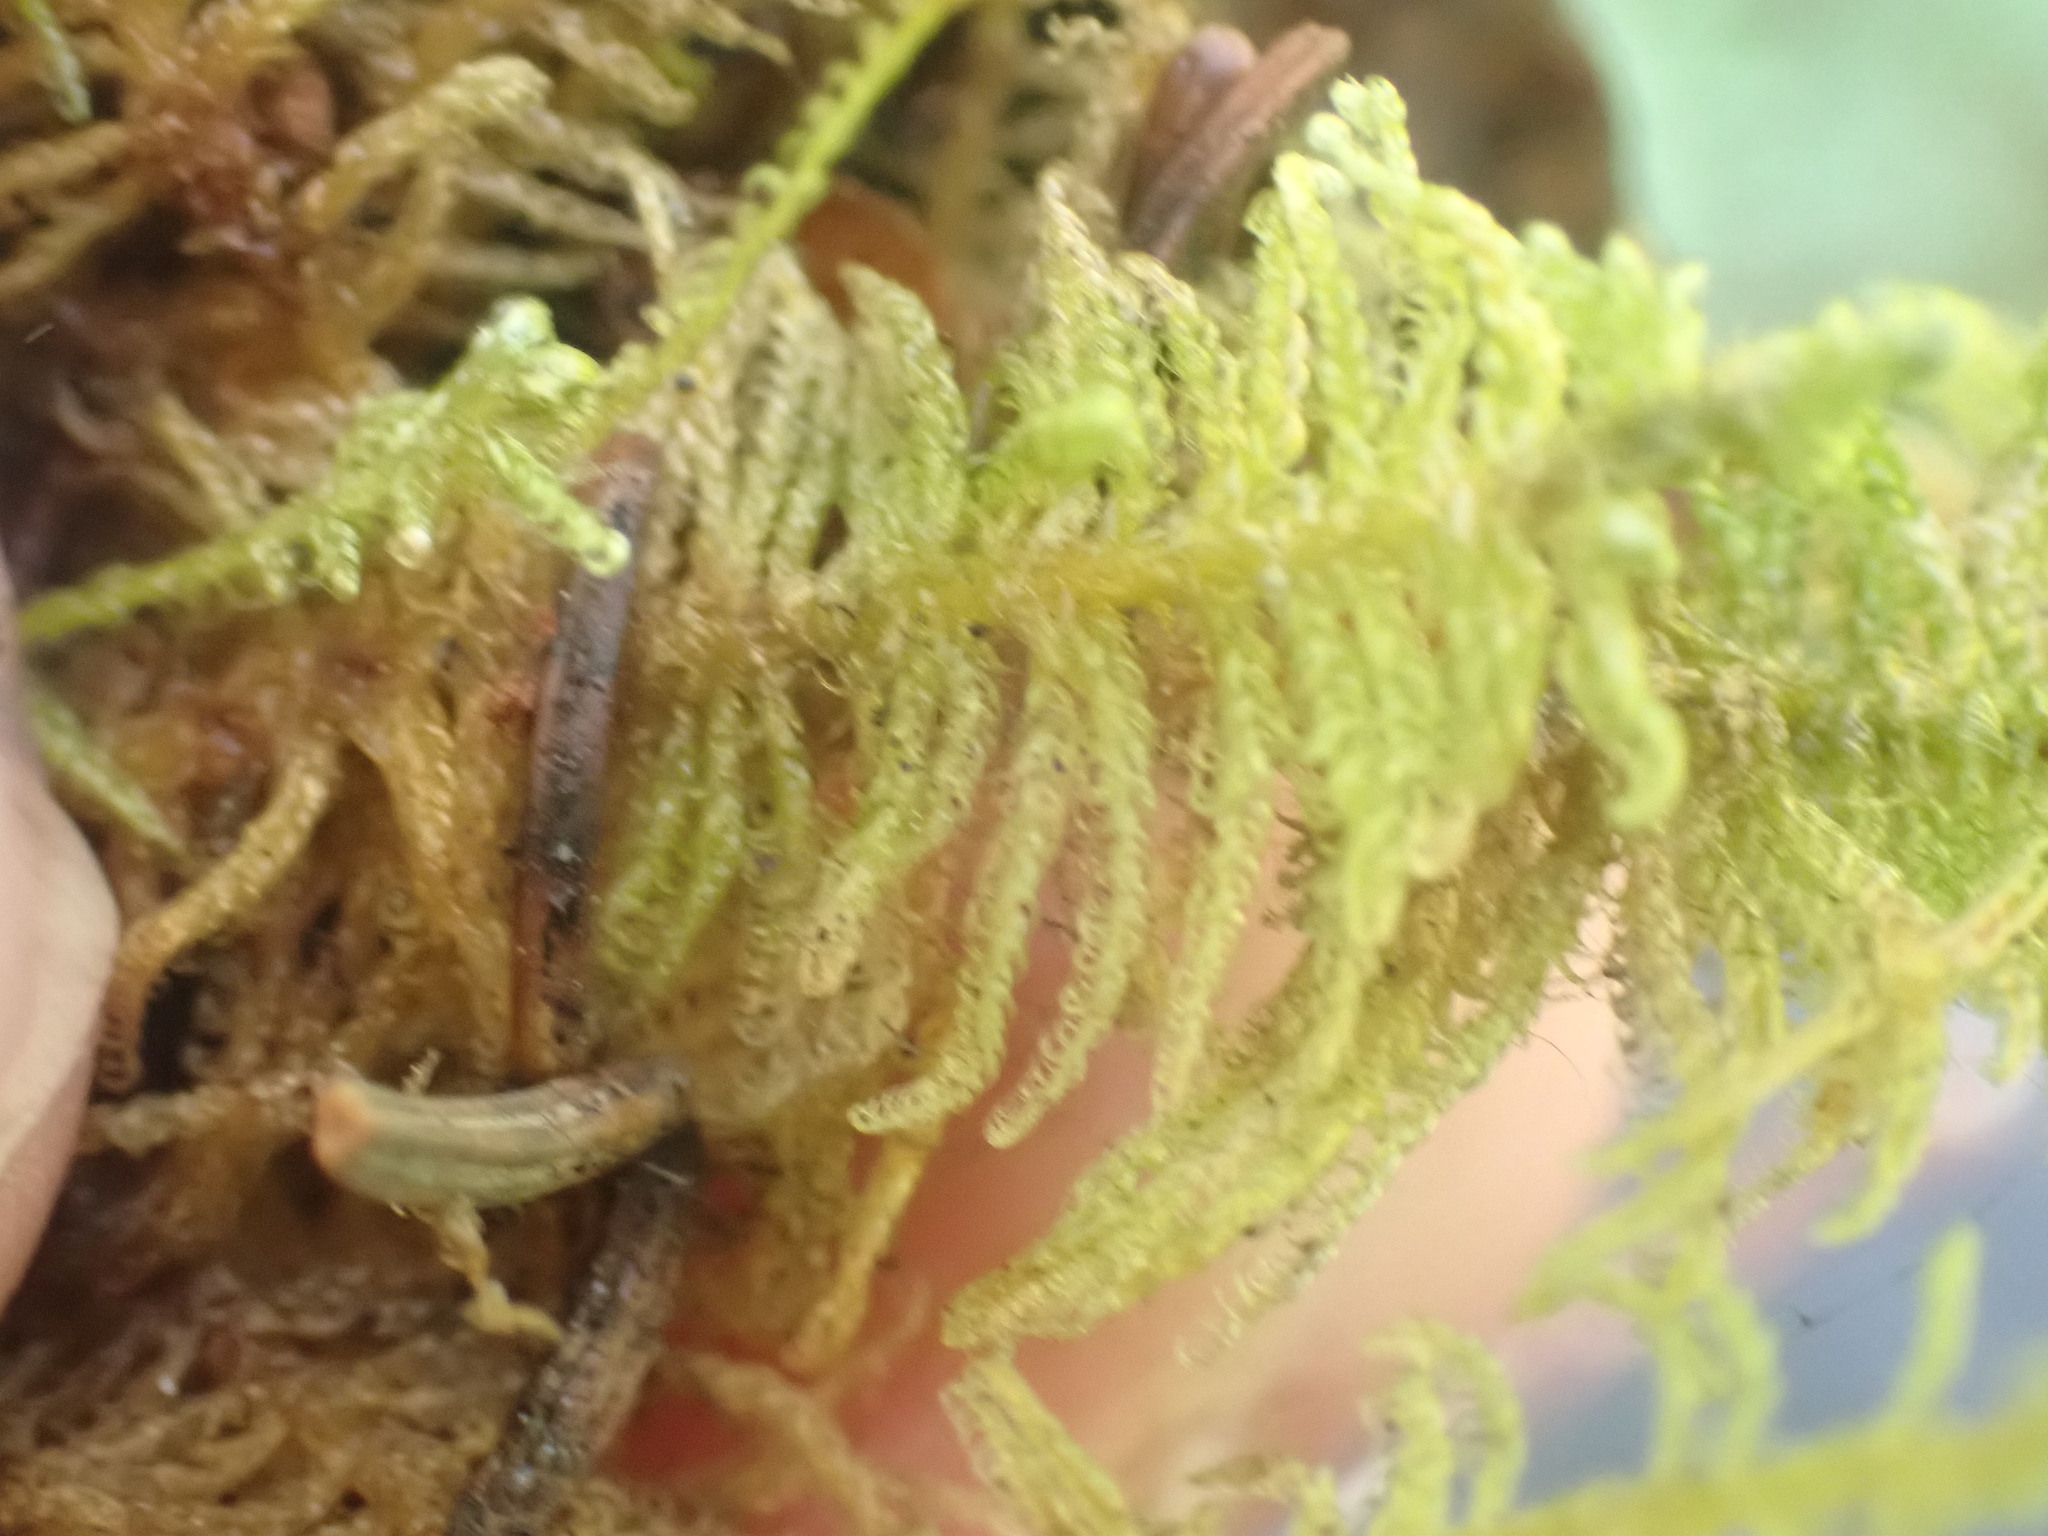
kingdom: Plantae
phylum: Bryophyta
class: Bryopsida
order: Hypnales
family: Pylaisiaceae
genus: Ptilium
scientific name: Ptilium crista-castrensis
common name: Knight's plume moss
